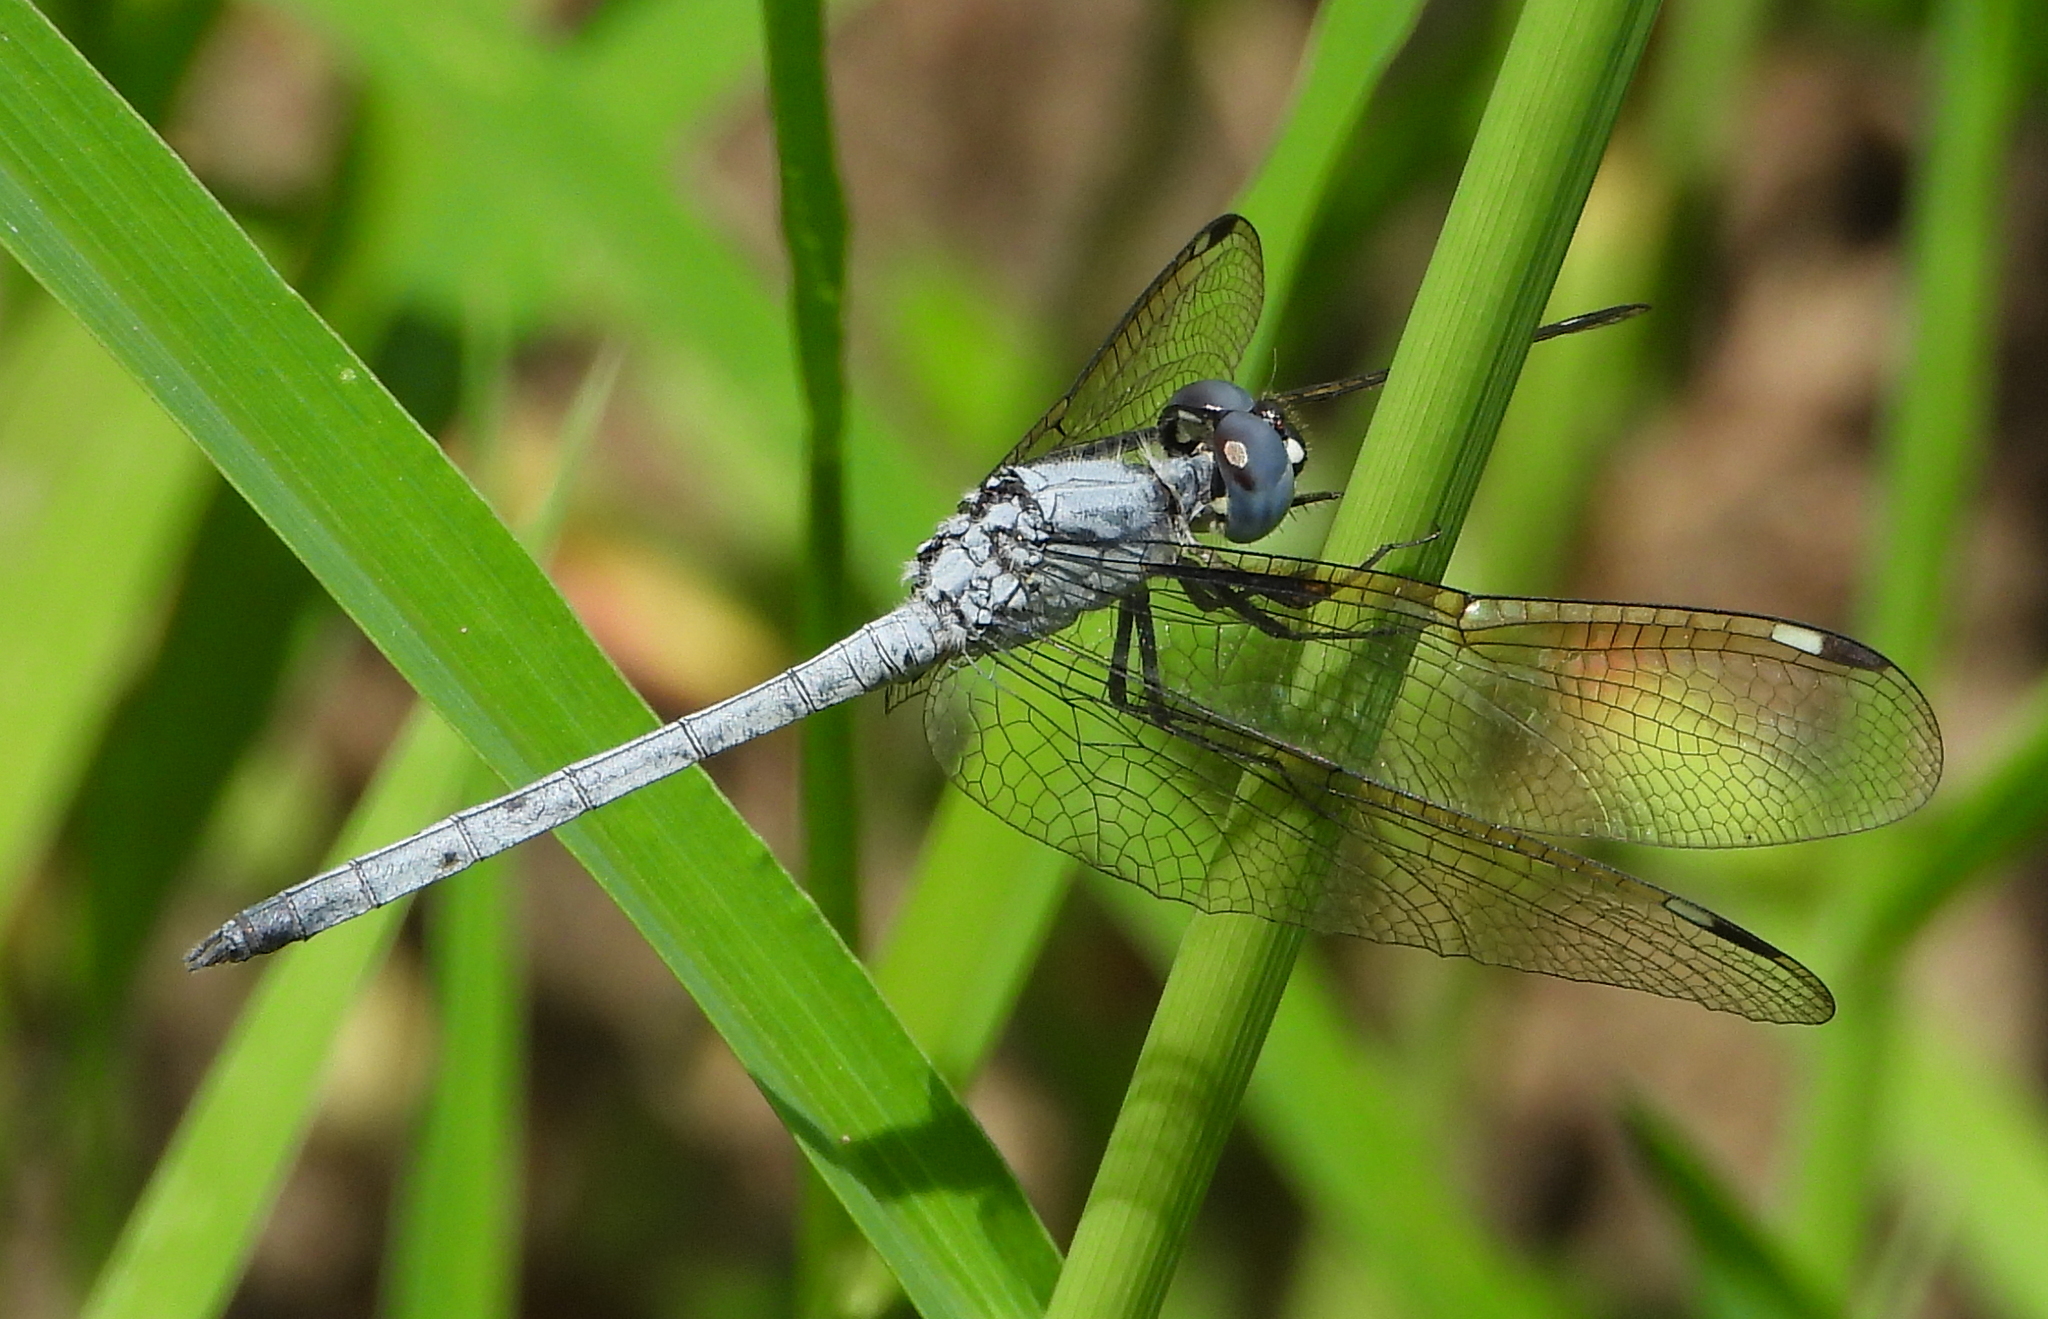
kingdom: Animalia
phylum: Arthropoda
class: Insecta
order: Odonata
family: Libellulidae
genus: Hemistigma
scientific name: Hemistigma albipunctum
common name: African pied-spot
